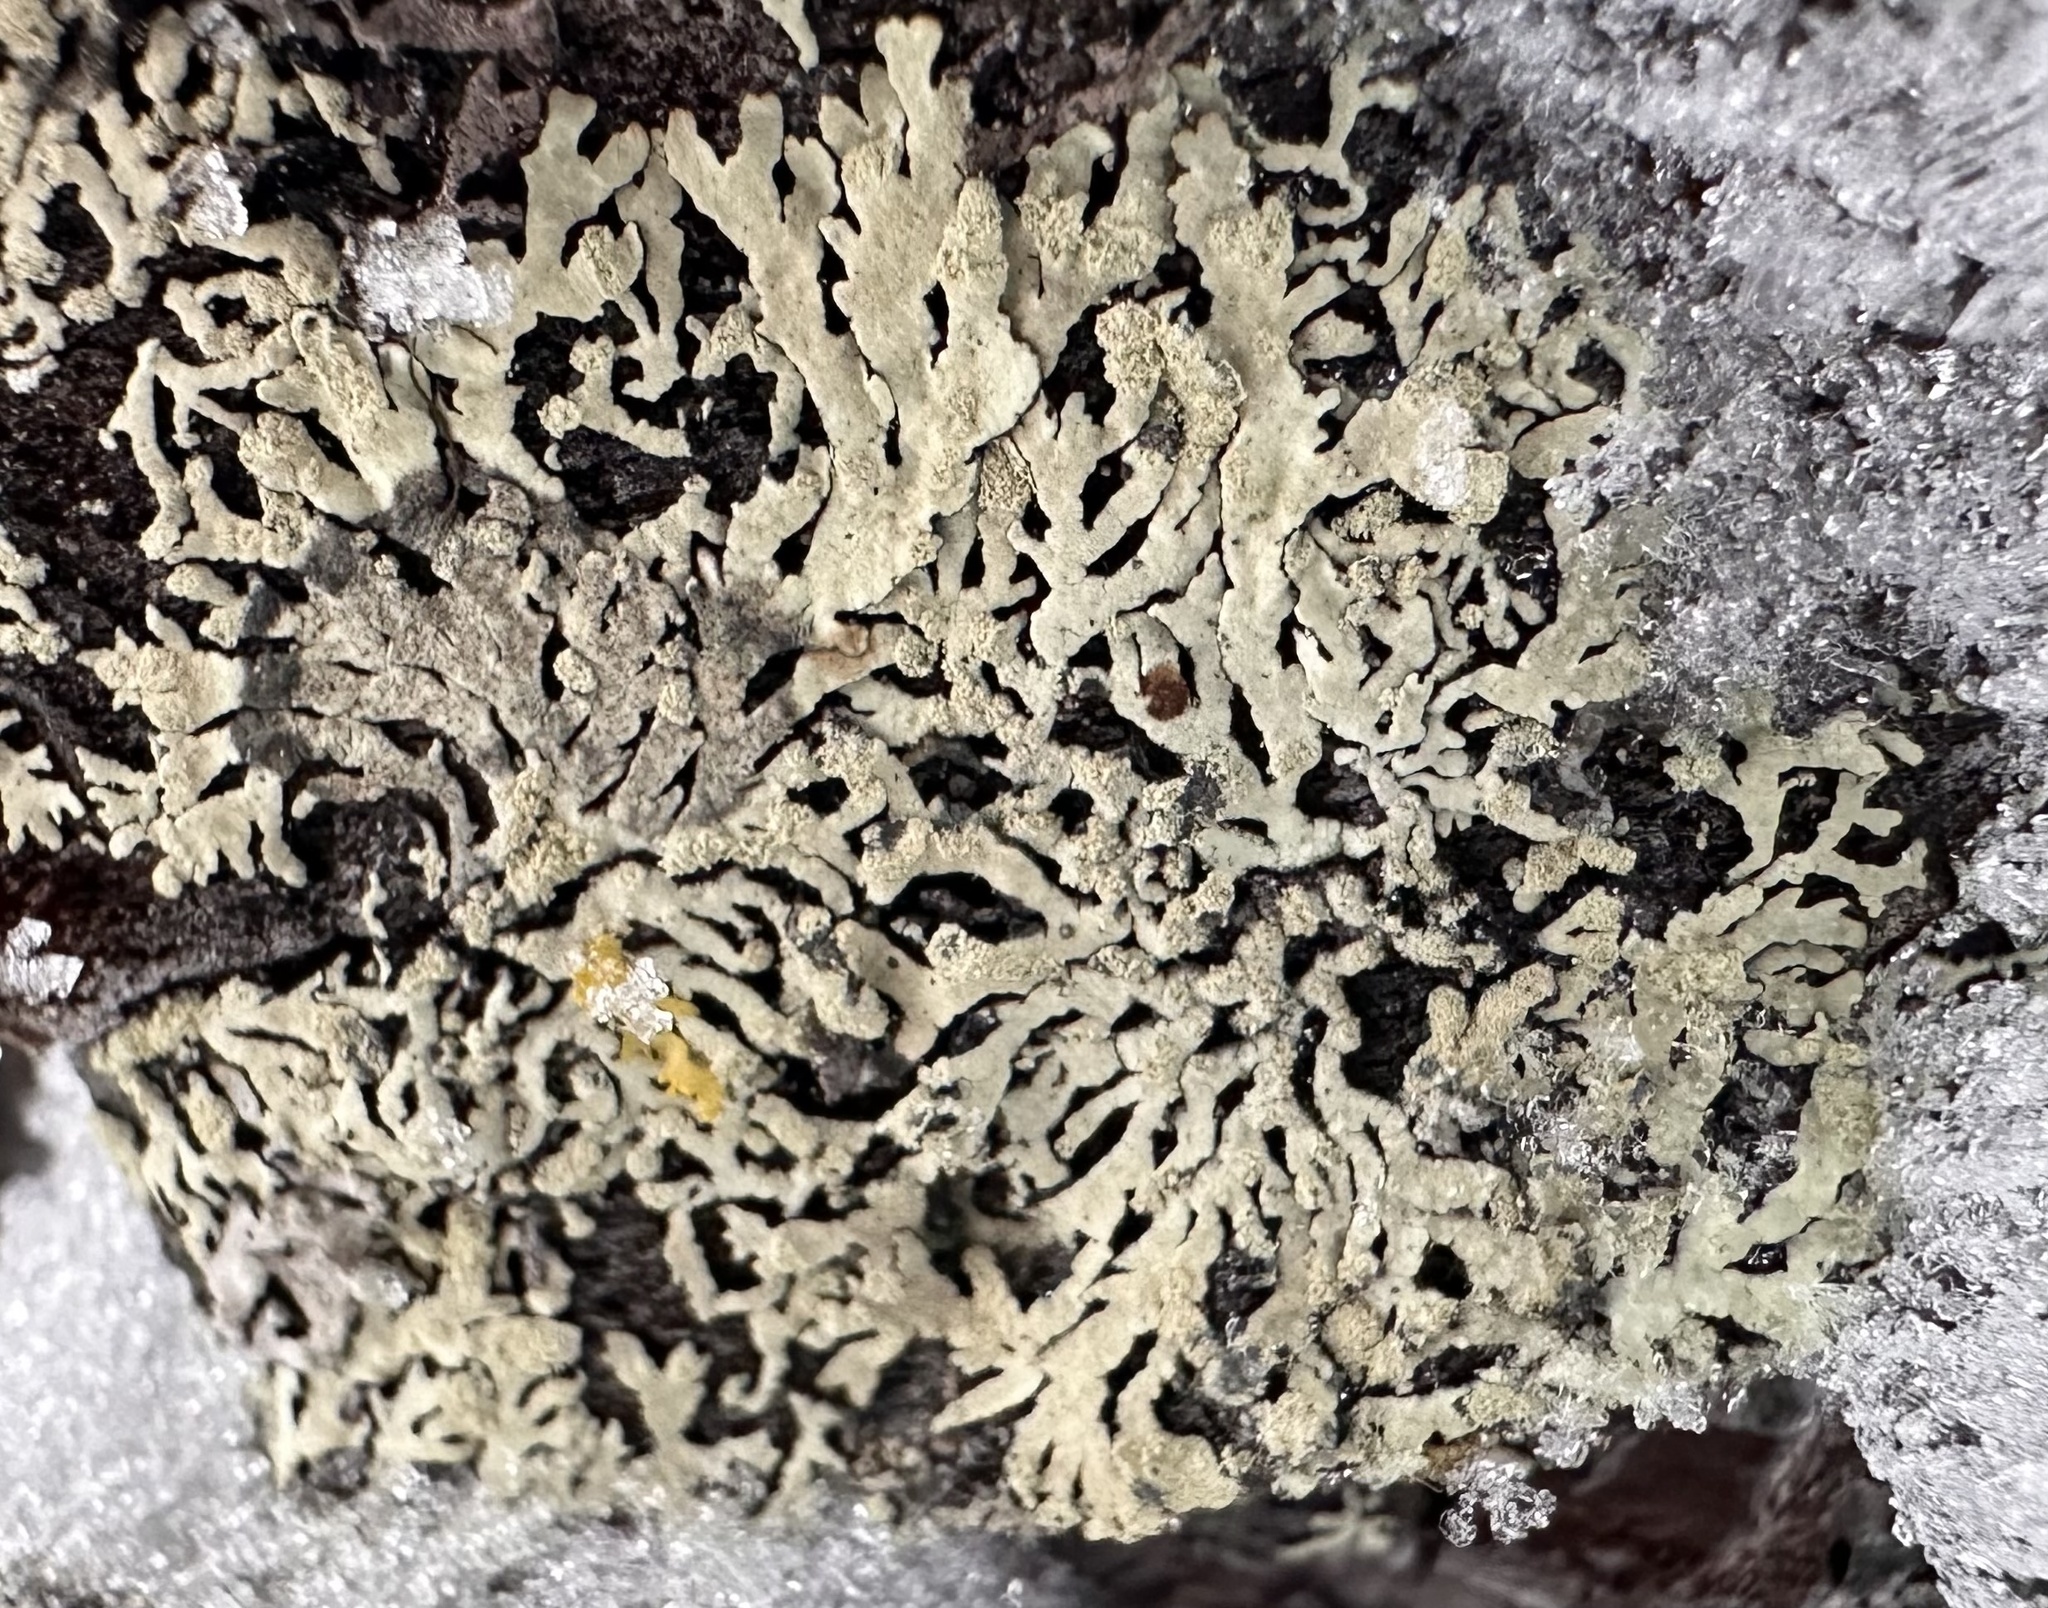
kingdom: Fungi
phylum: Ascomycota
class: Lecanoromycetes
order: Lecanorales
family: Parmeliaceae
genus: Parmeliopsis
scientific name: Parmeliopsis ambigua
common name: Green starburst lichen
